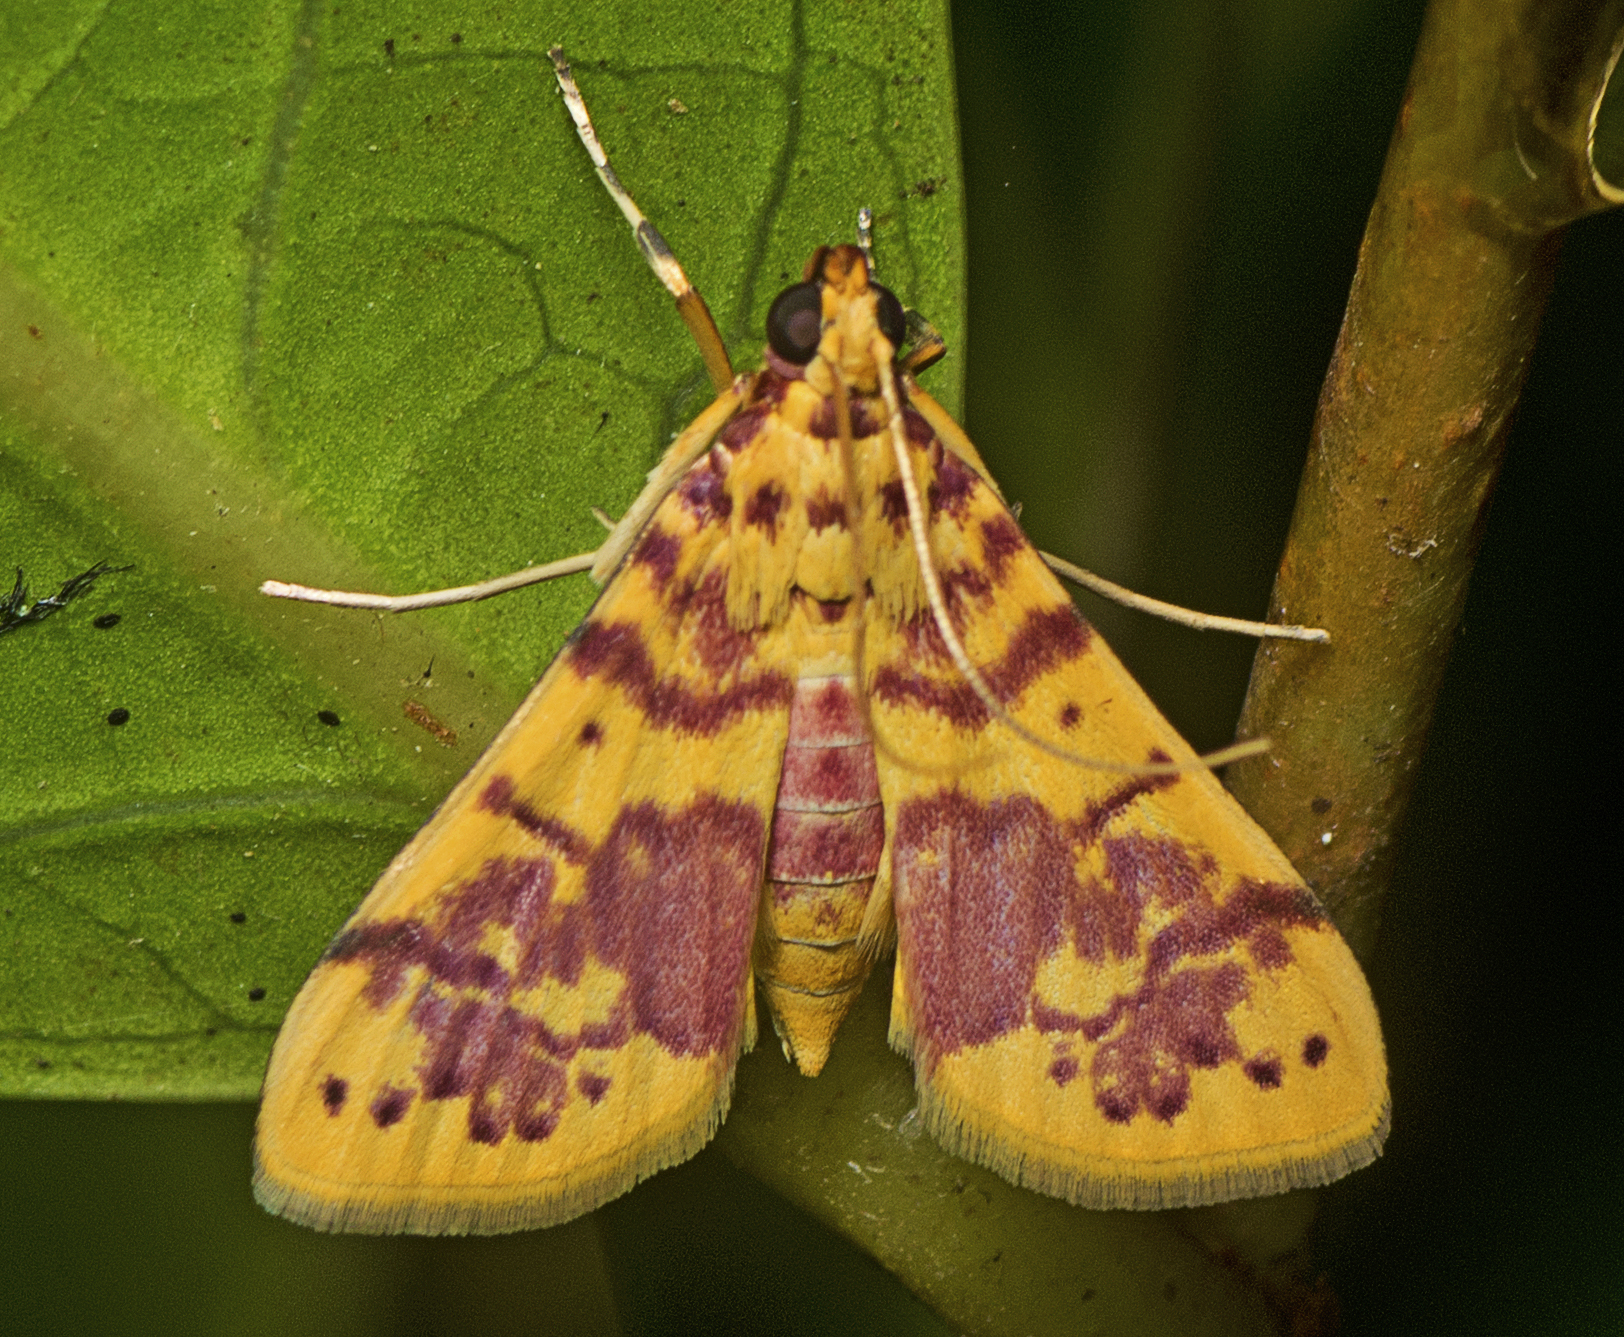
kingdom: Animalia
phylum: Arthropoda
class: Insecta
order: Lepidoptera
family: Crambidae
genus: Conogethes
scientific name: Conogethes haemactalis
